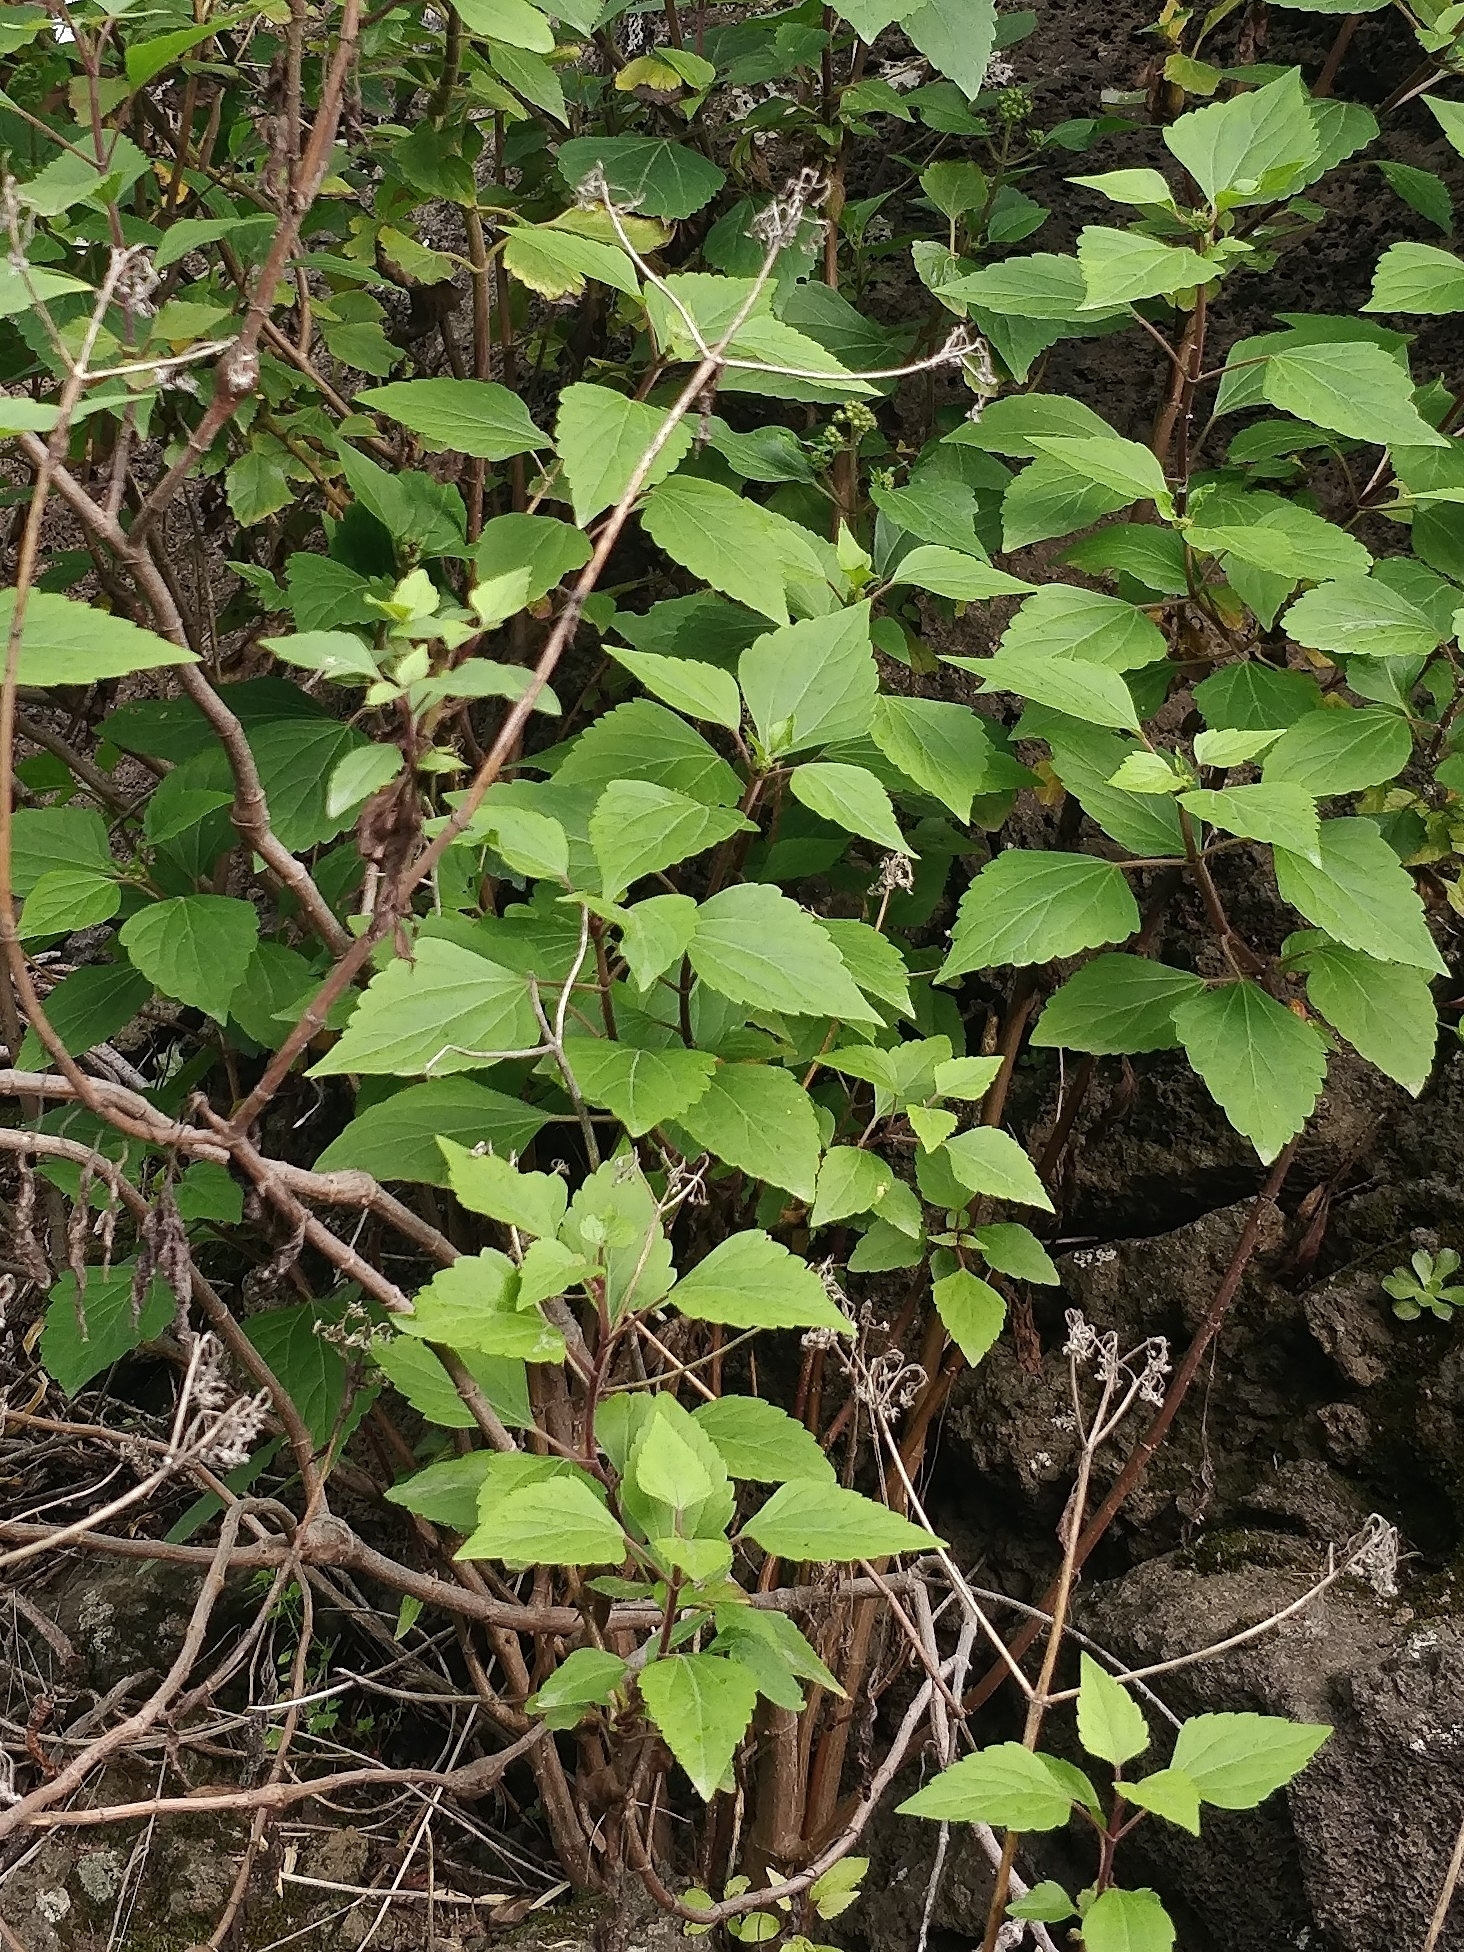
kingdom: Plantae
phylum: Tracheophyta
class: Magnoliopsida
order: Asterales
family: Asteraceae
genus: Ageratina
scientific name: Ageratina adenophora
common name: Sticky snakeroot
